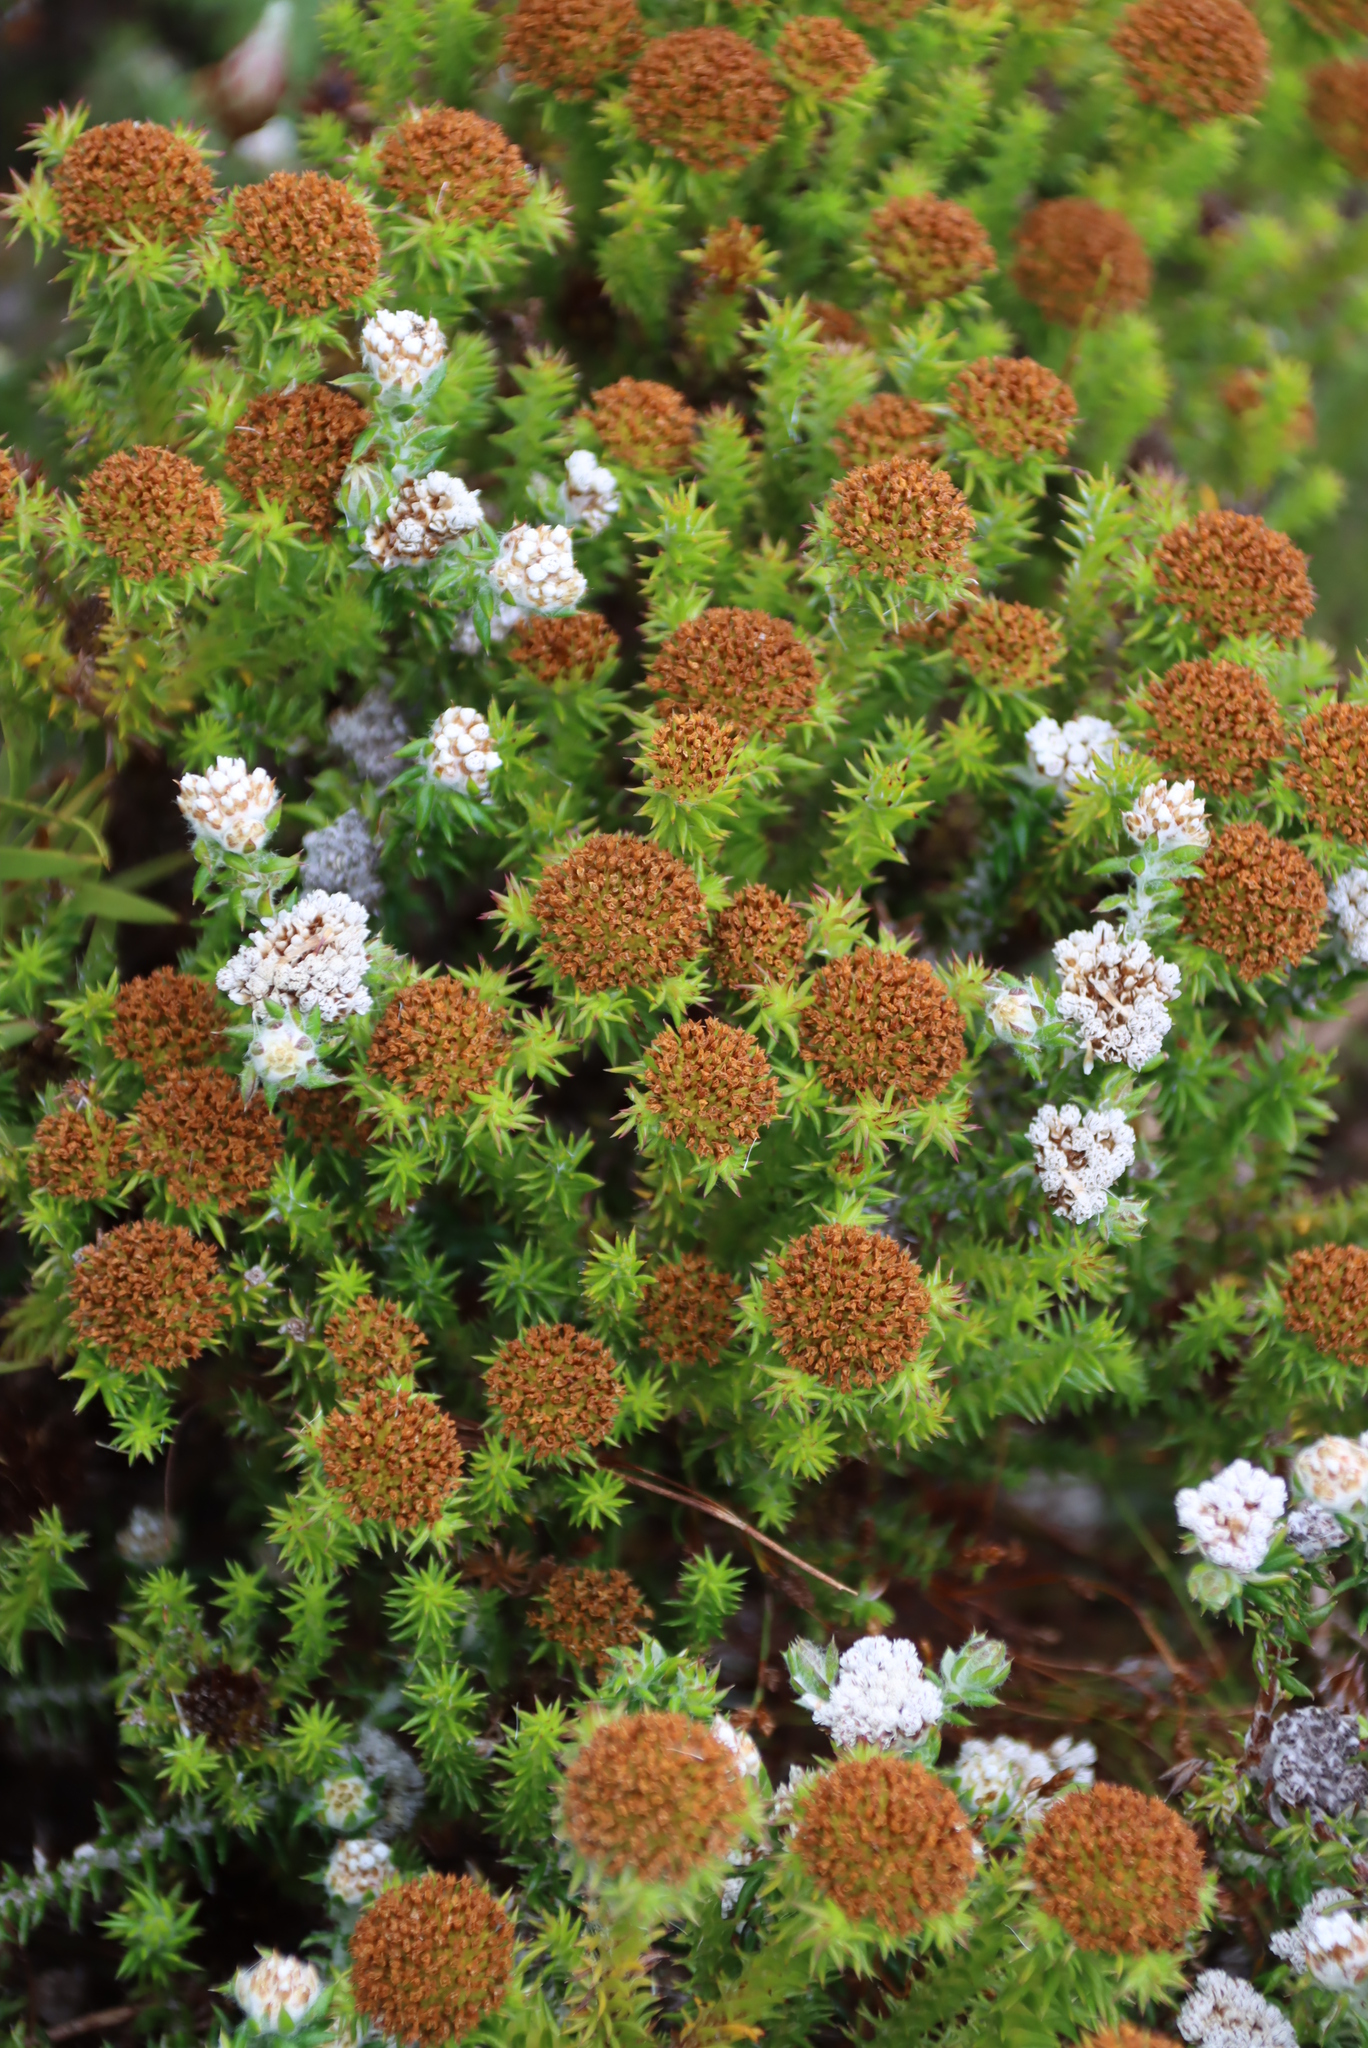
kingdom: Plantae
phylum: Tracheophyta
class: Magnoliopsida
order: Asterales
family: Asteraceae
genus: Stoebe
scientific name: Stoebe aethiopica
